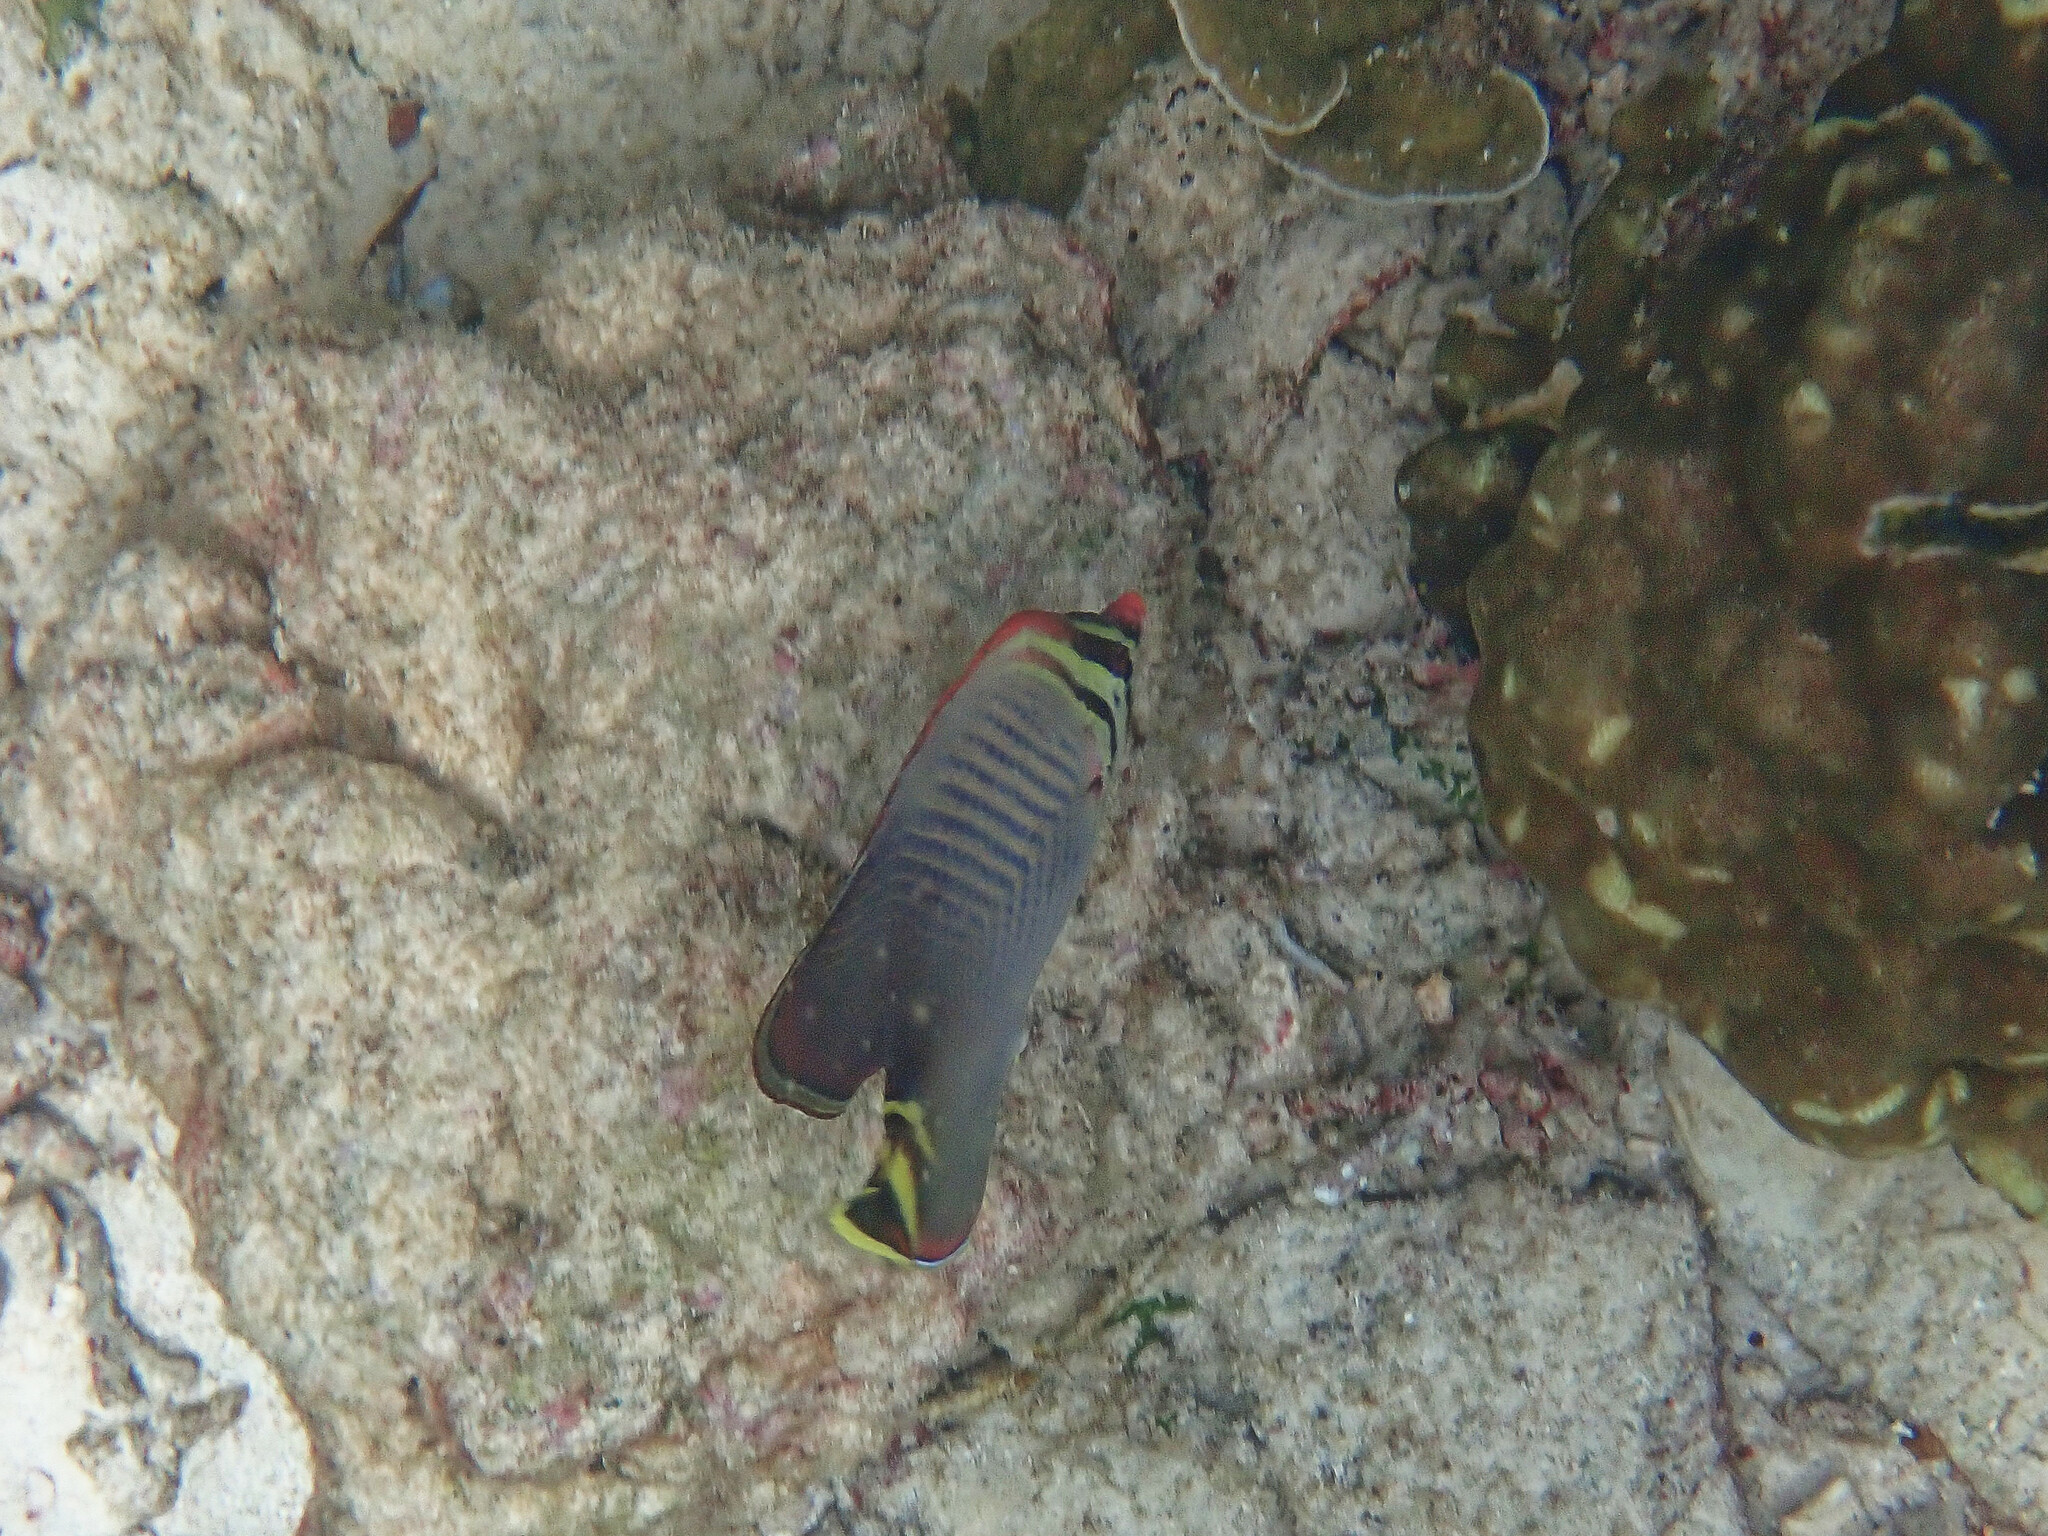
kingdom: Animalia
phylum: Chordata
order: Perciformes
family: Chaetodontidae
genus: Chaetodon
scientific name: Chaetodon triangulum
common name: Triangular butterflyfish
